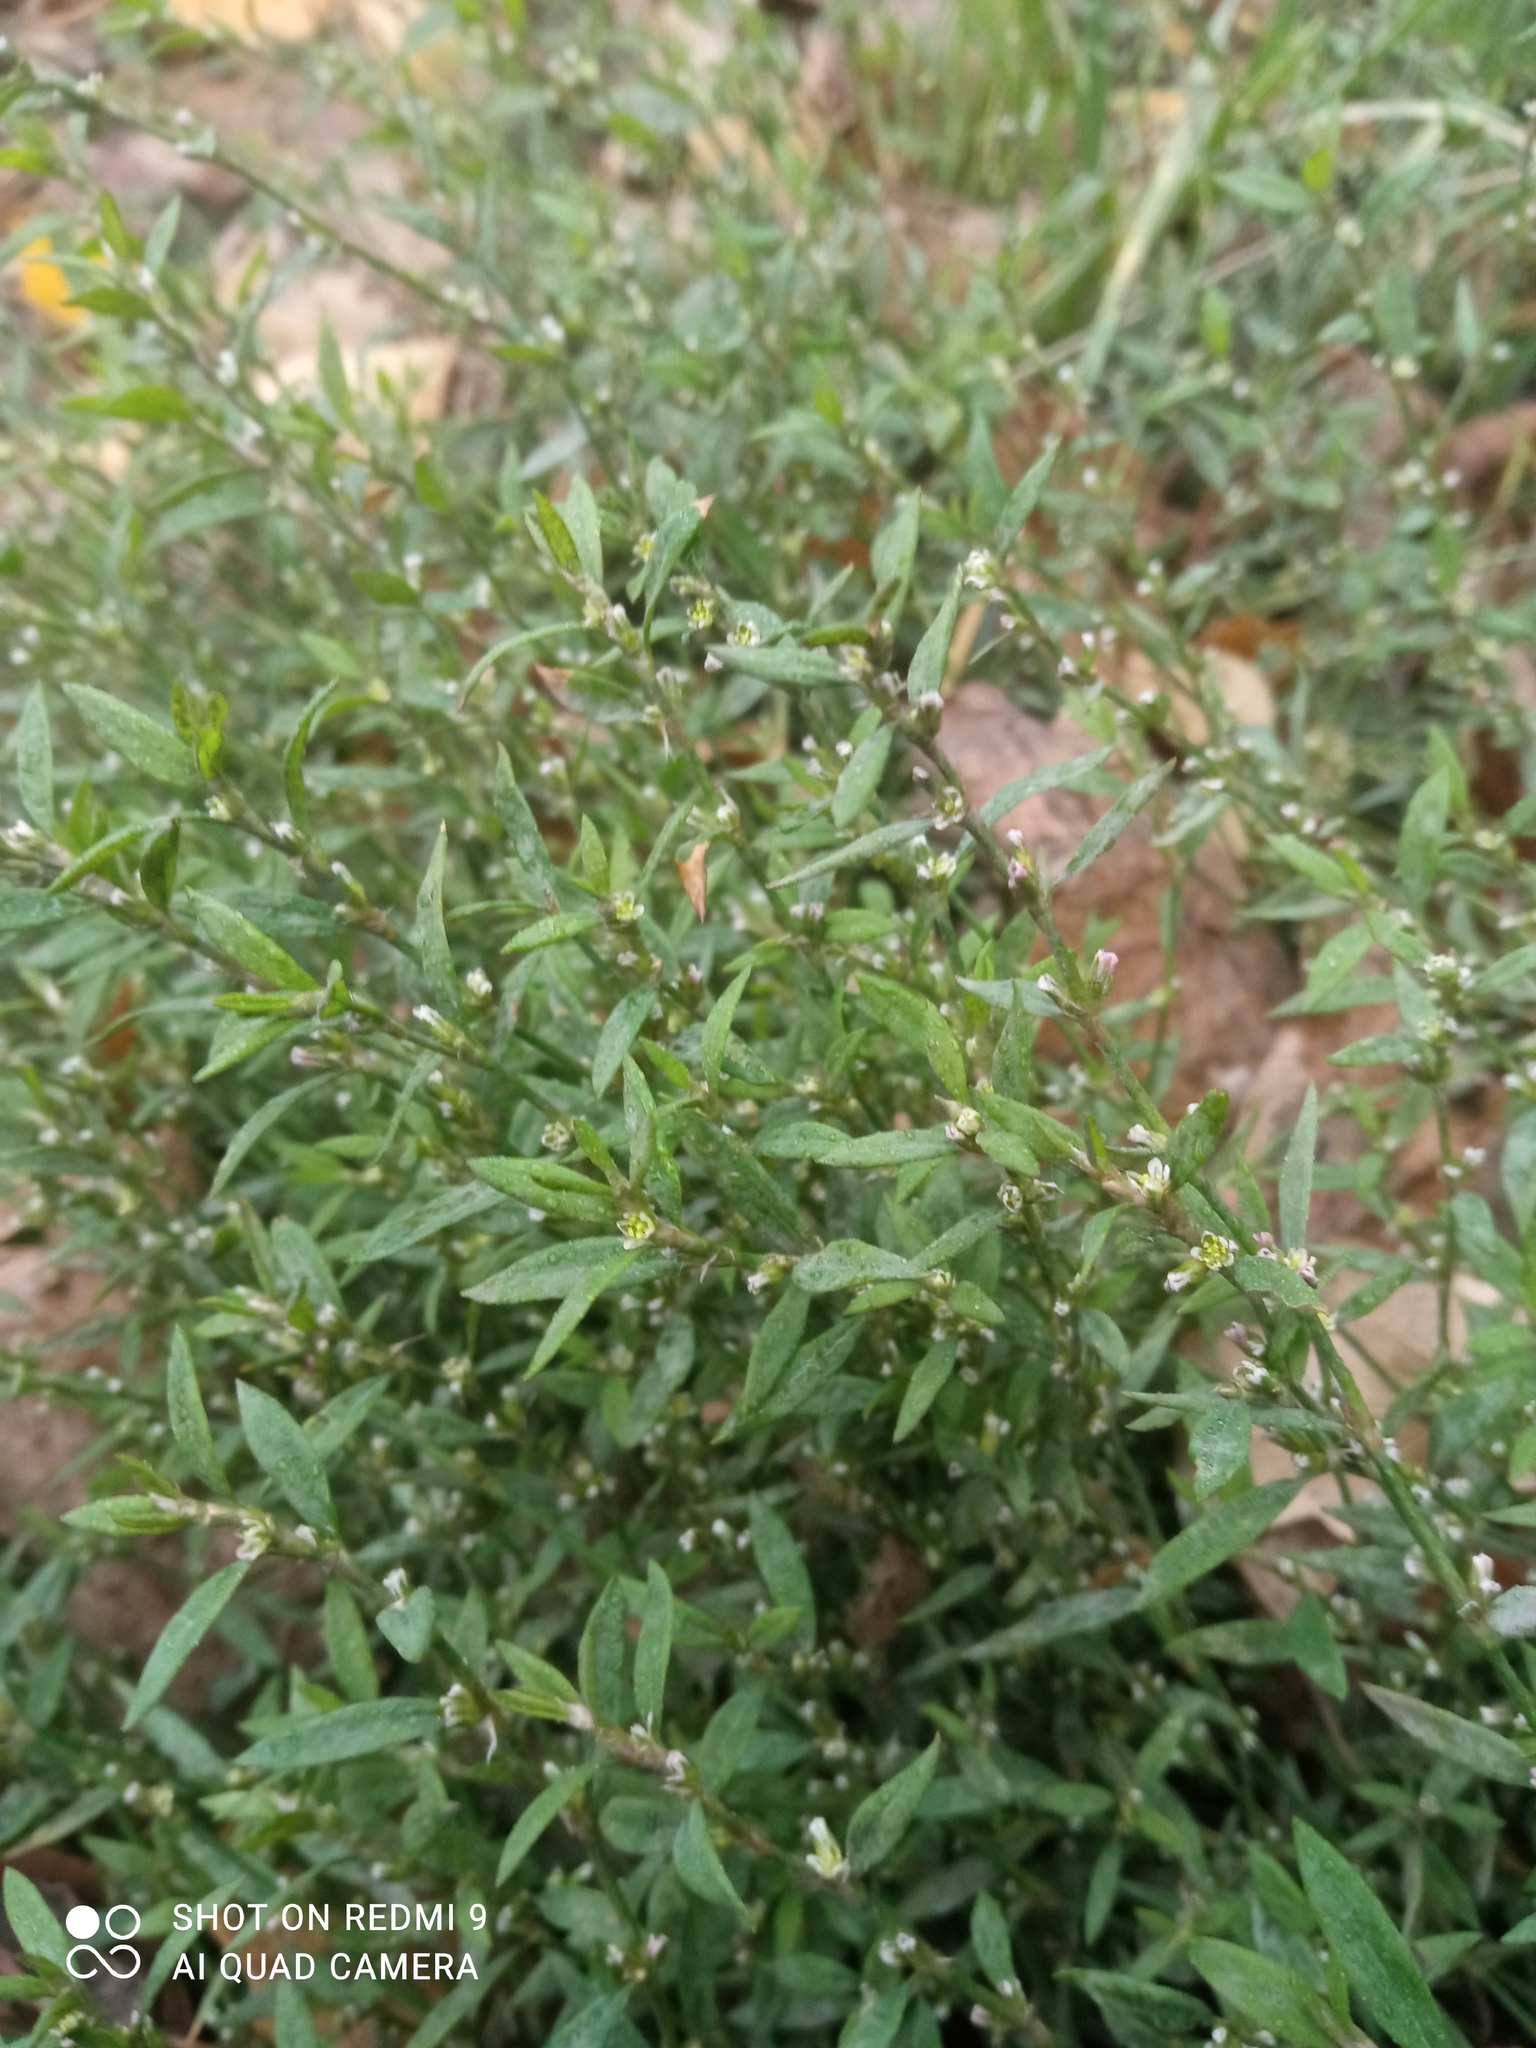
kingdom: Plantae
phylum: Tracheophyta
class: Magnoliopsida
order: Caryophyllales
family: Polygonaceae
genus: Polygonum
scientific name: Polygonum
